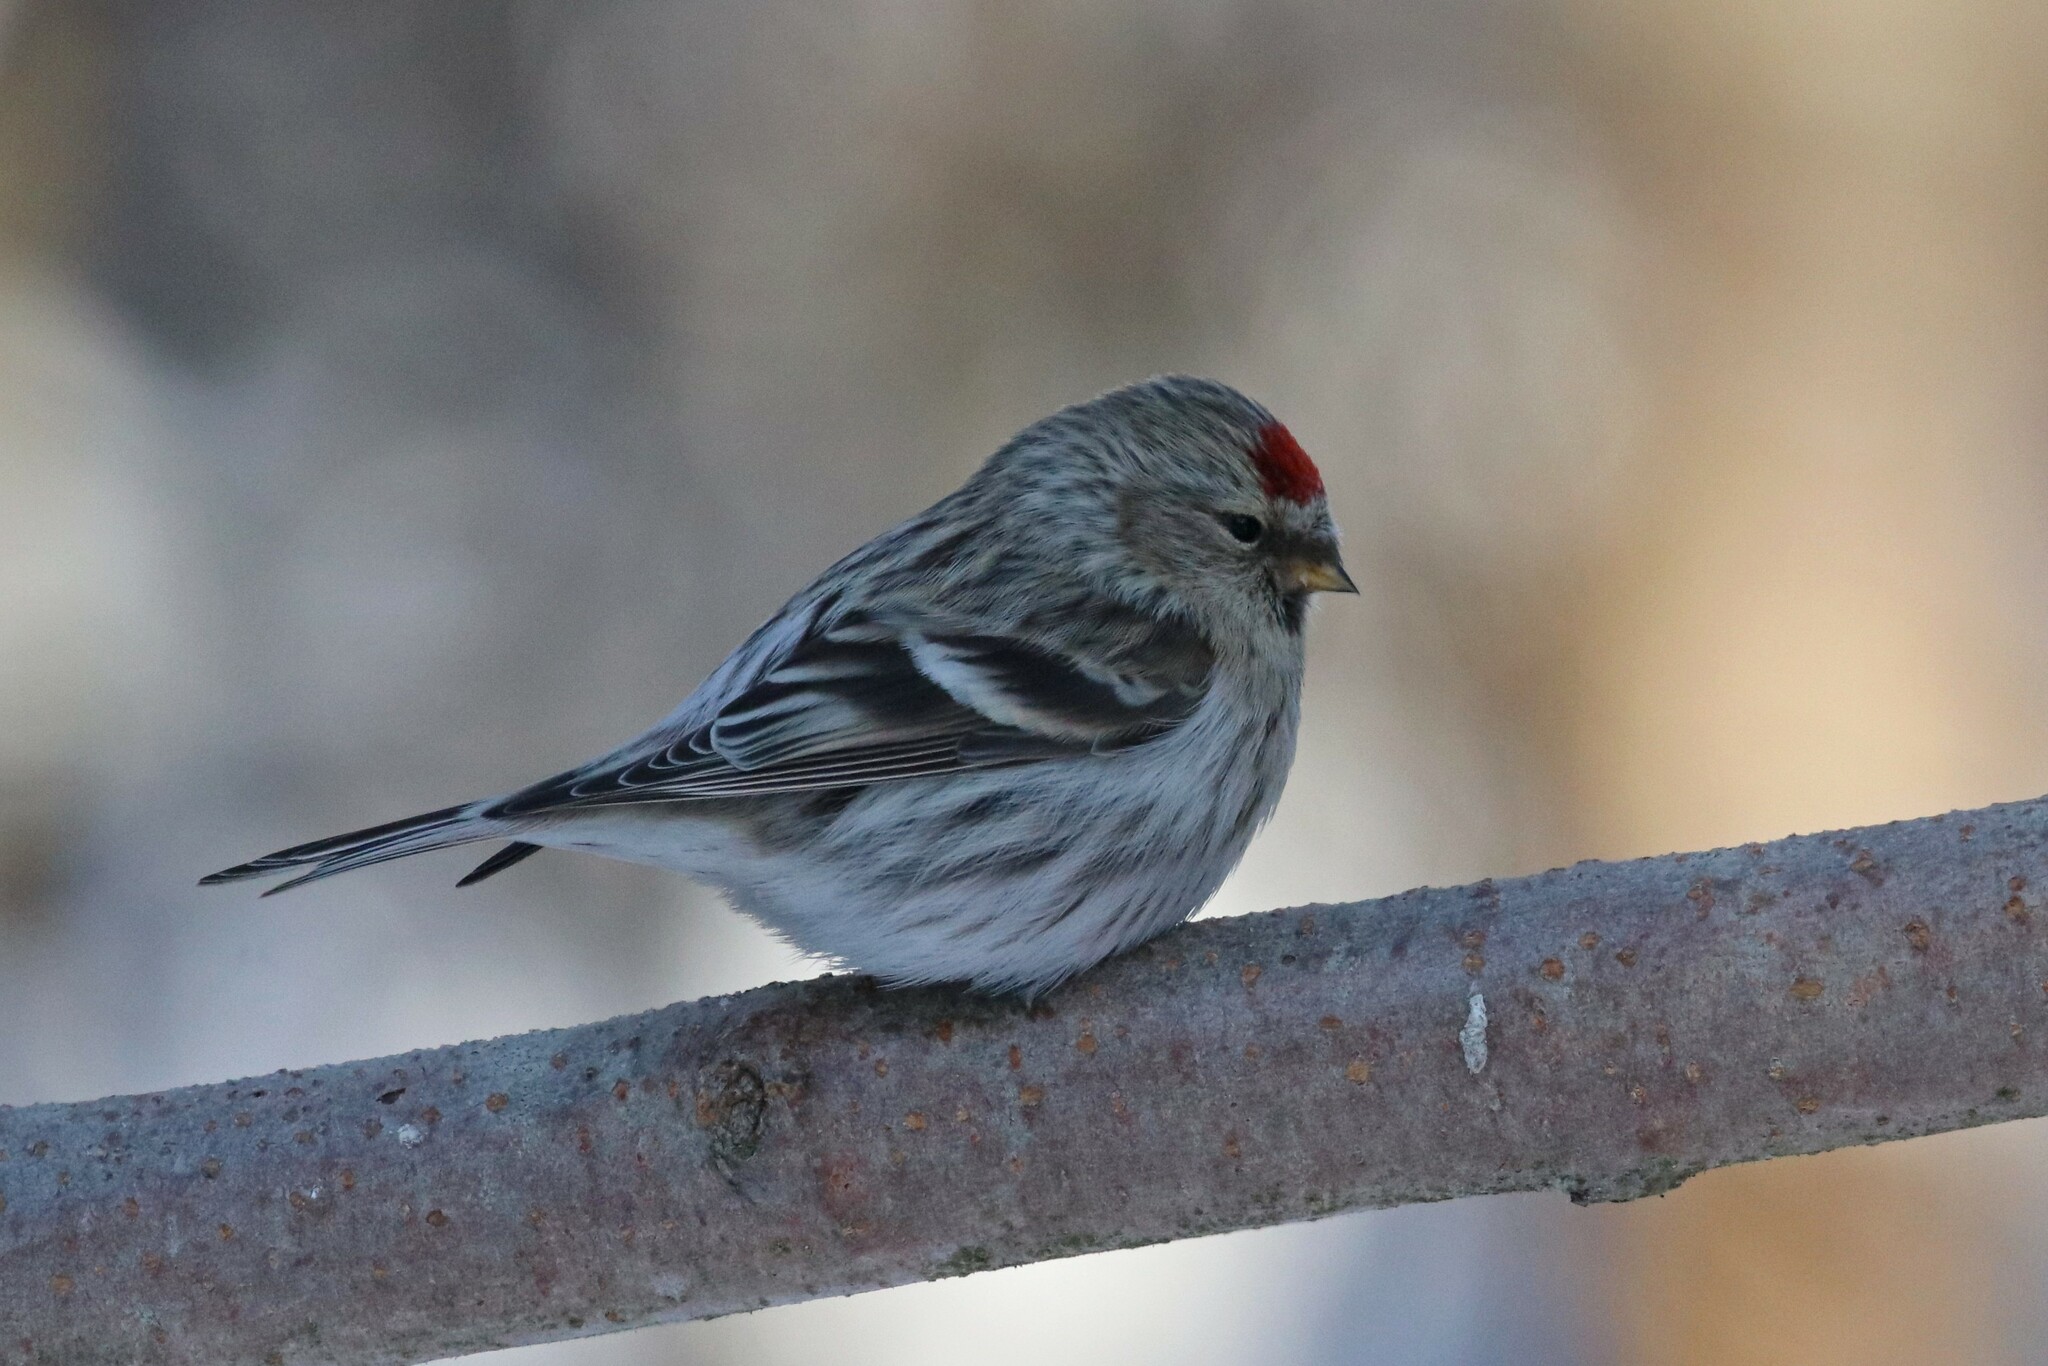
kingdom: Animalia
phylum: Chordata
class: Aves
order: Passeriformes
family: Fringillidae
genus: Acanthis
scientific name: Acanthis flammea
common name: Common redpoll
